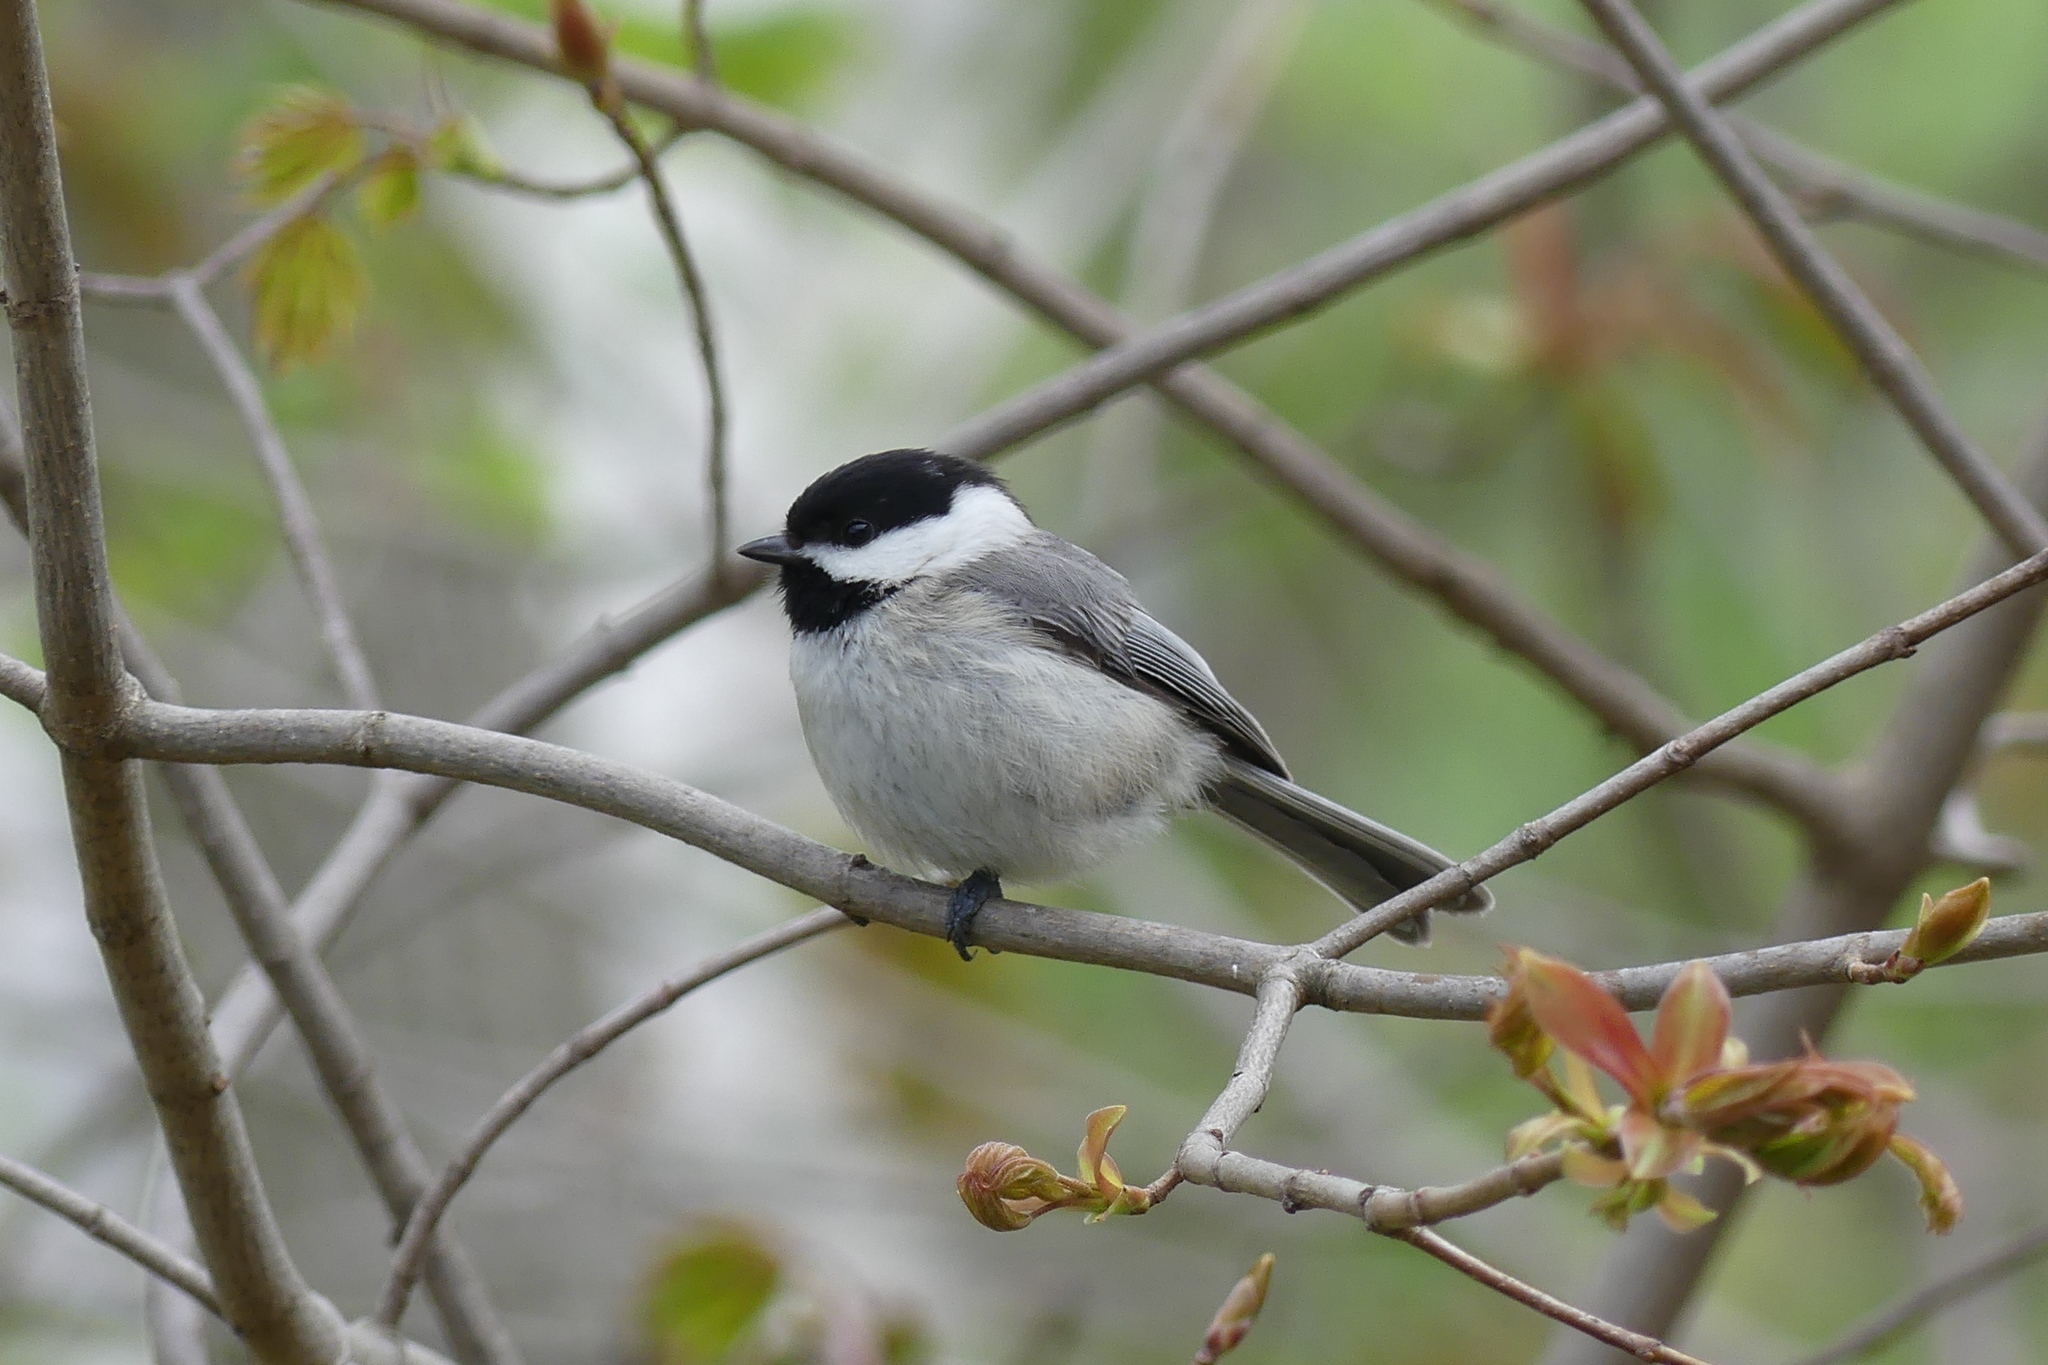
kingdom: Animalia
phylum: Chordata
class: Aves
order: Passeriformes
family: Paridae
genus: Poecile
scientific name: Poecile carolinensis
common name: Carolina chickadee
